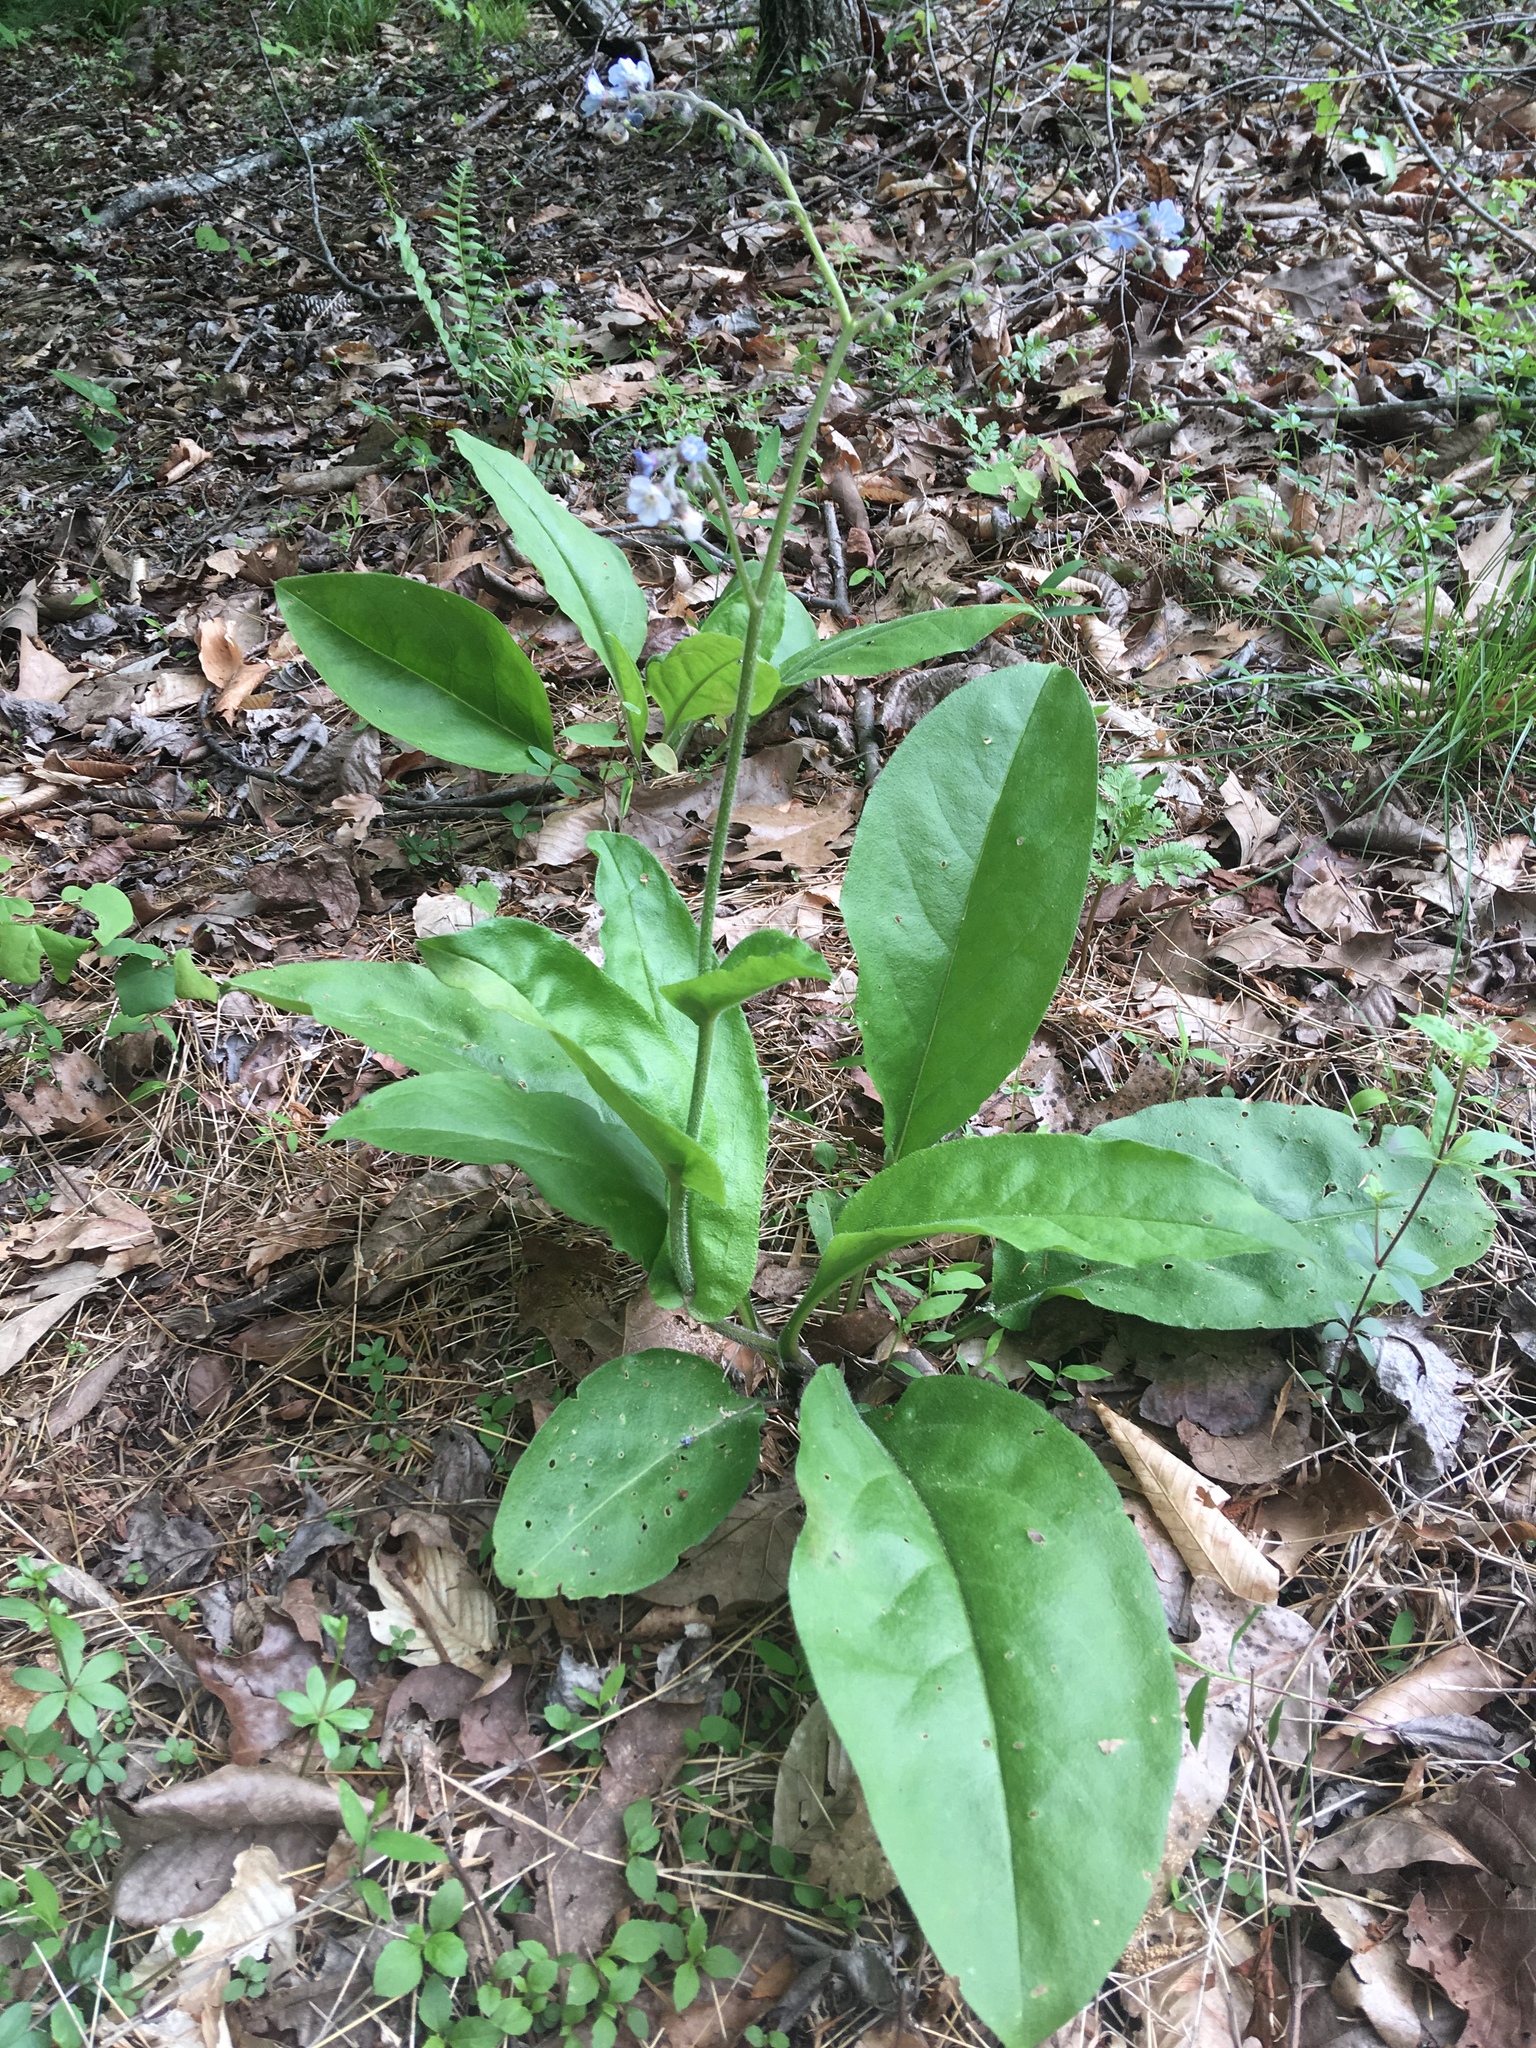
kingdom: Plantae
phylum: Tracheophyta
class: Magnoliopsida
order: Boraginales
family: Boraginaceae
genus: Andersonglossum
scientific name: Andersonglossum virginianum
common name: Wild comfrey
